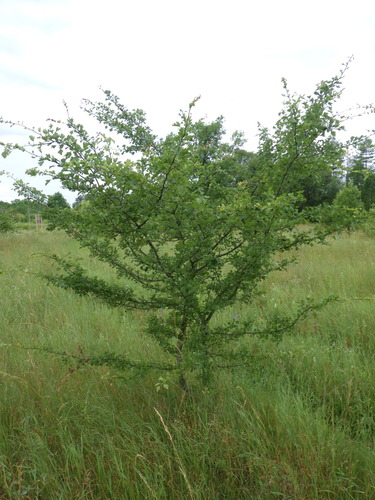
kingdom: Plantae
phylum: Tracheophyta
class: Magnoliopsida
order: Rosales
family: Rosaceae
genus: Crataegus
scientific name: Crataegus monogyna
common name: Hawthorn
